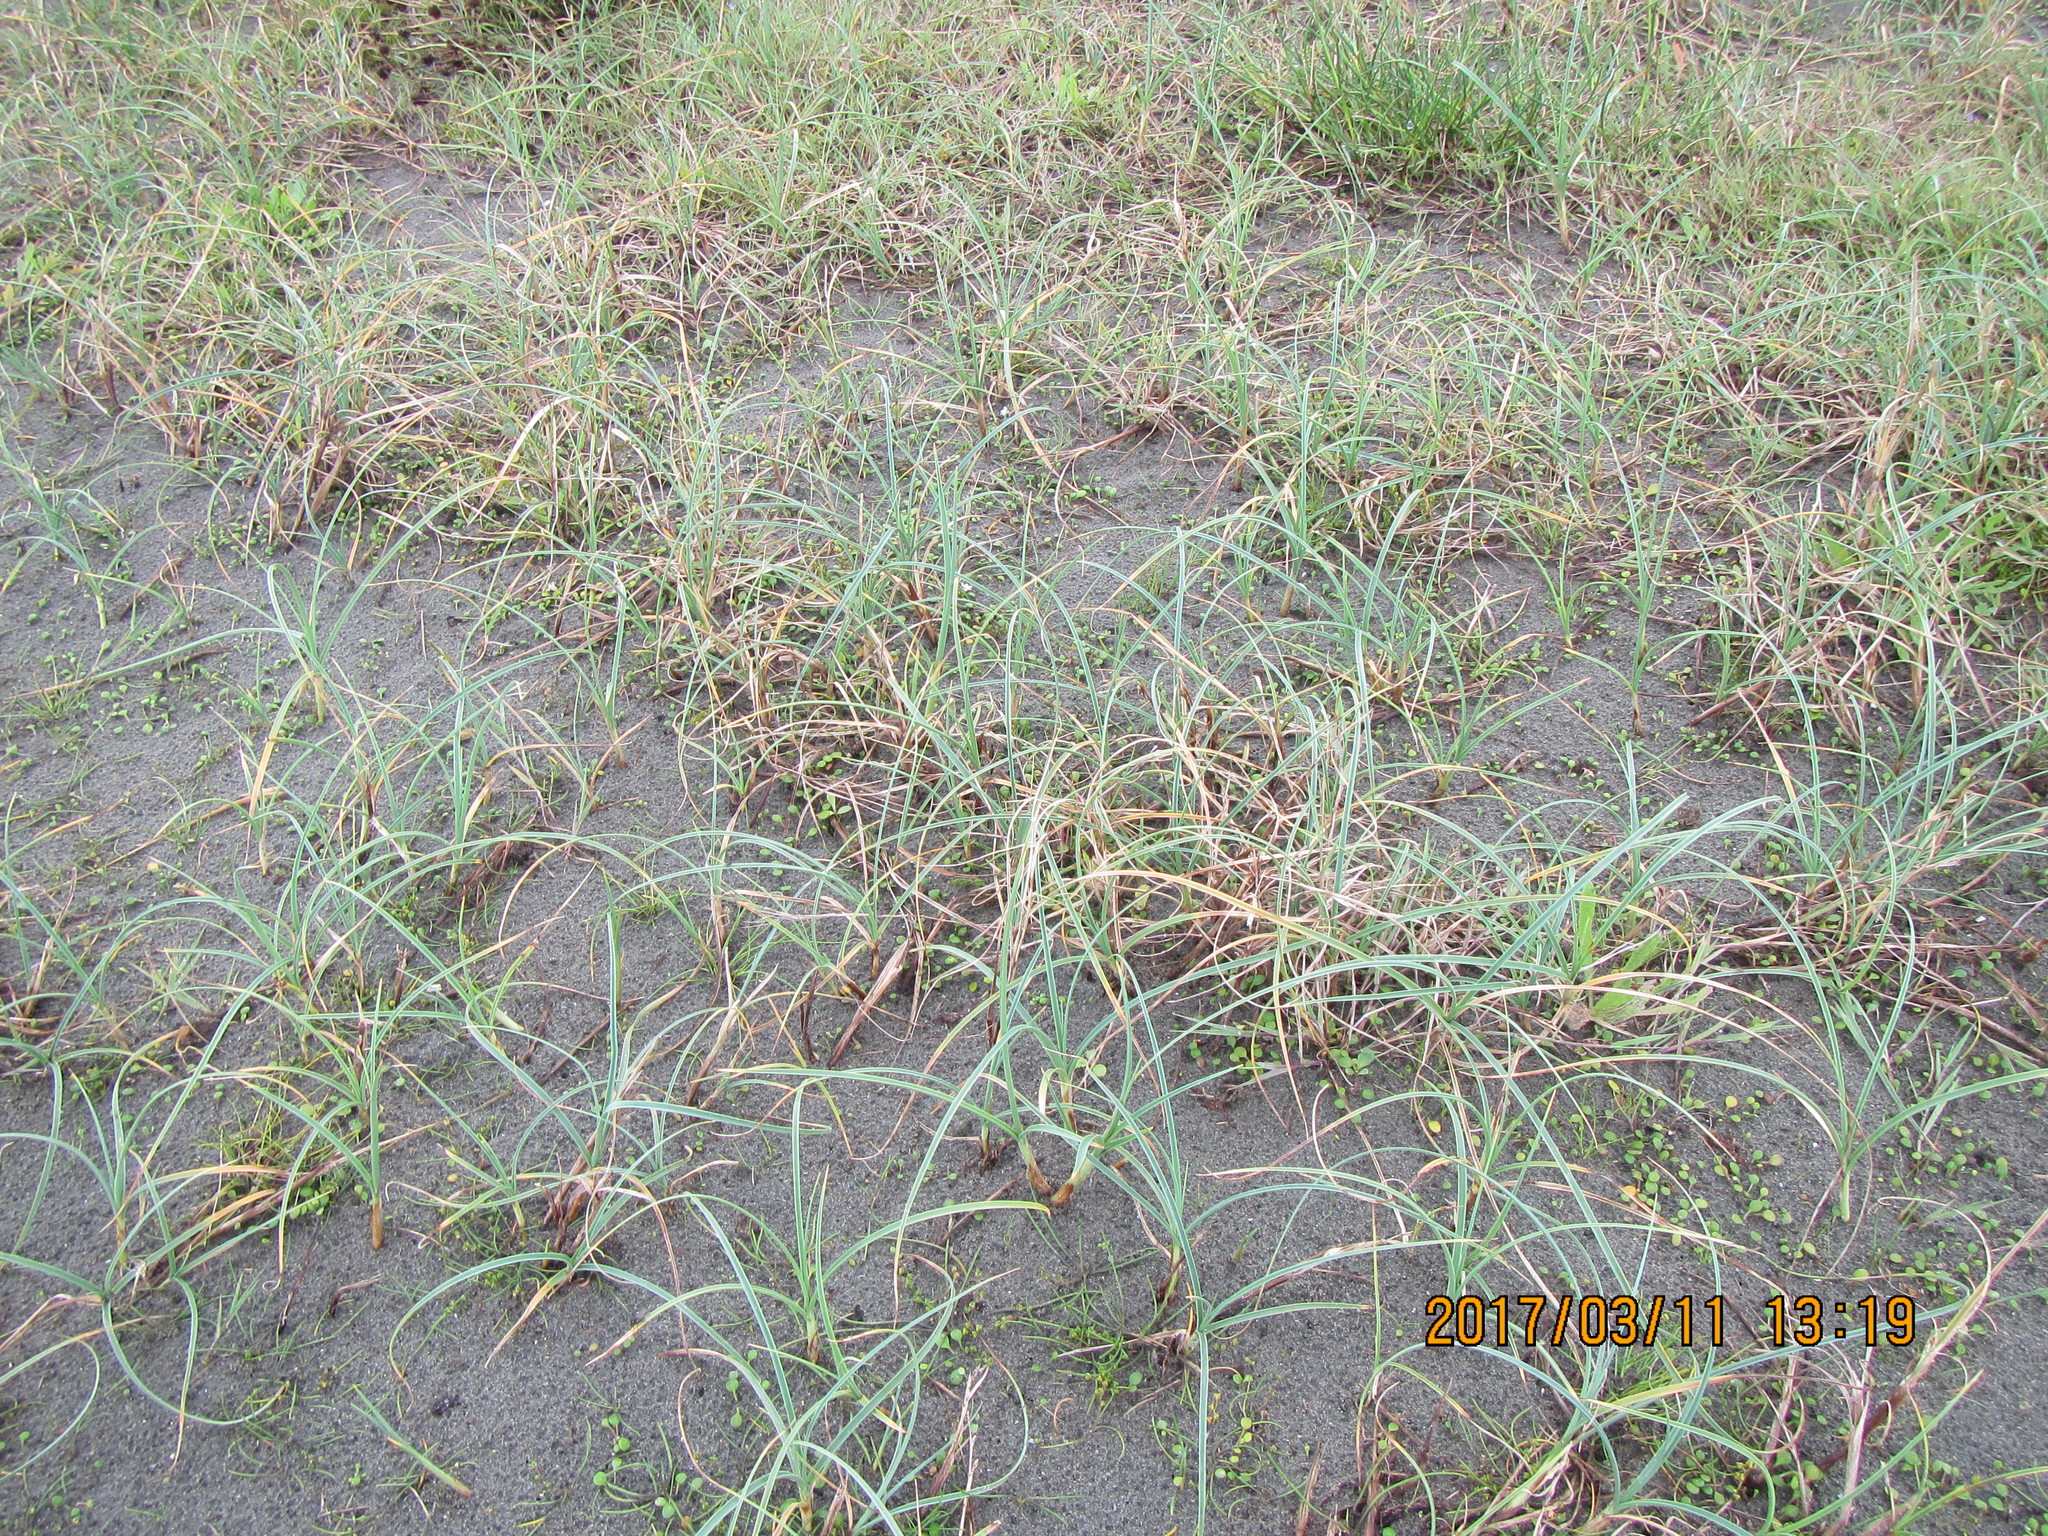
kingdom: Plantae
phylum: Tracheophyta
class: Liliopsida
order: Poales
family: Cyperaceae
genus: Carex
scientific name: Carex pumila
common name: Dwarf sedge
